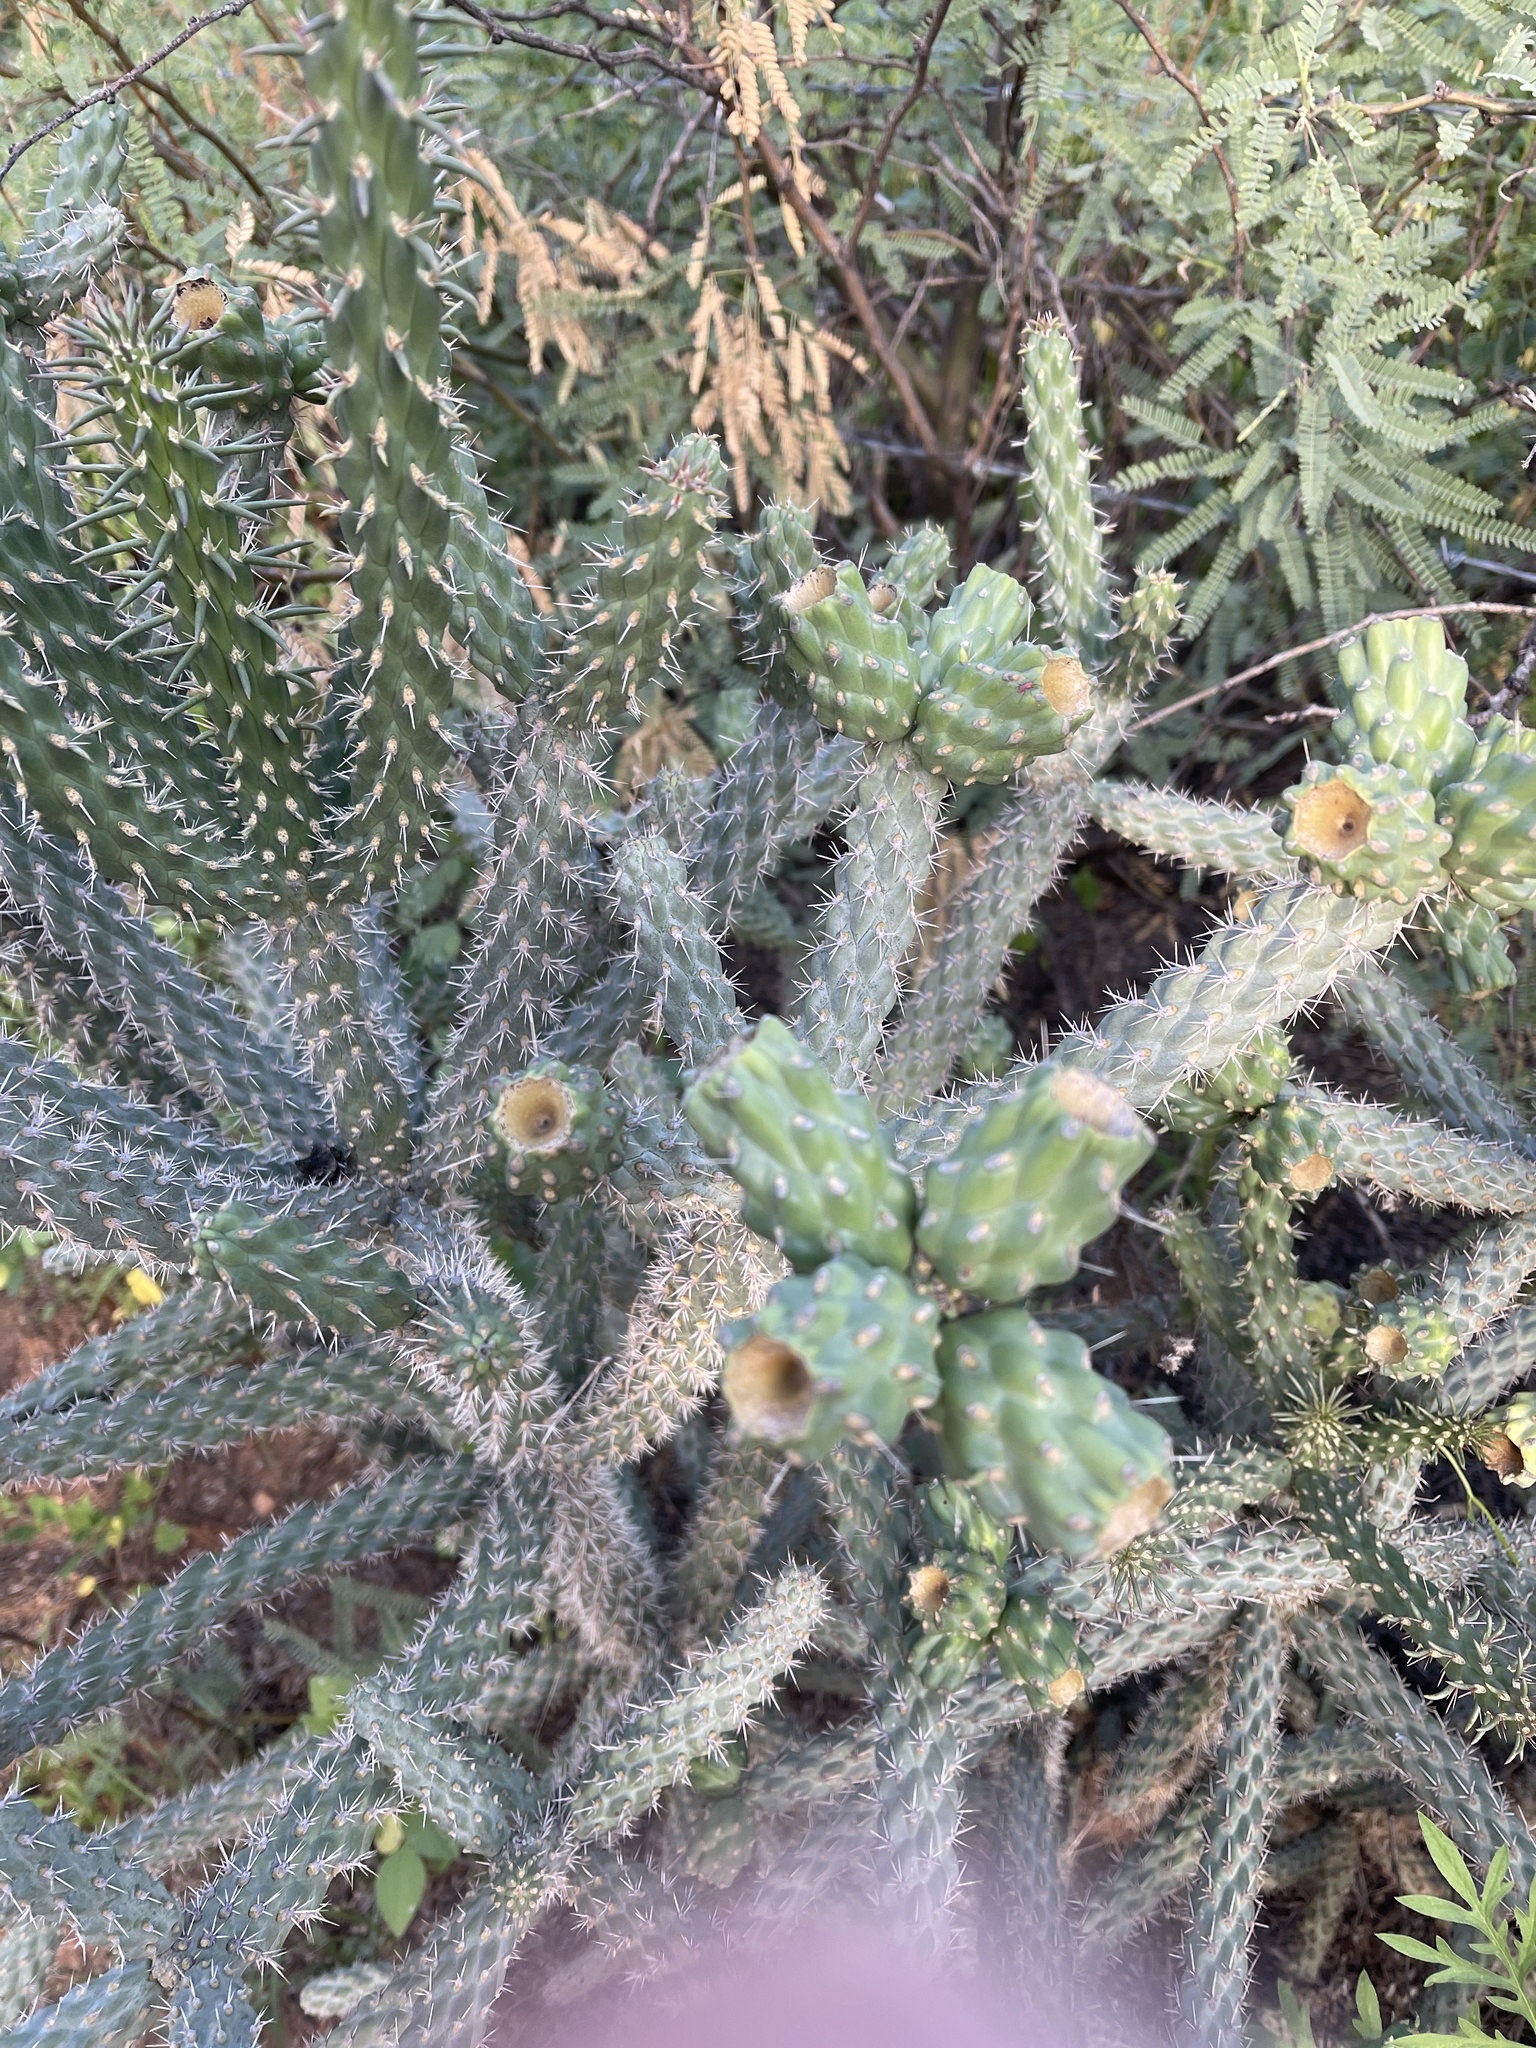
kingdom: Plantae
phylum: Tracheophyta
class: Magnoliopsida
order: Caryophyllales
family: Cactaceae
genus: Cylindropuntia
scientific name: Cylindropuntia imbricata
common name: Candelabrum cactus
